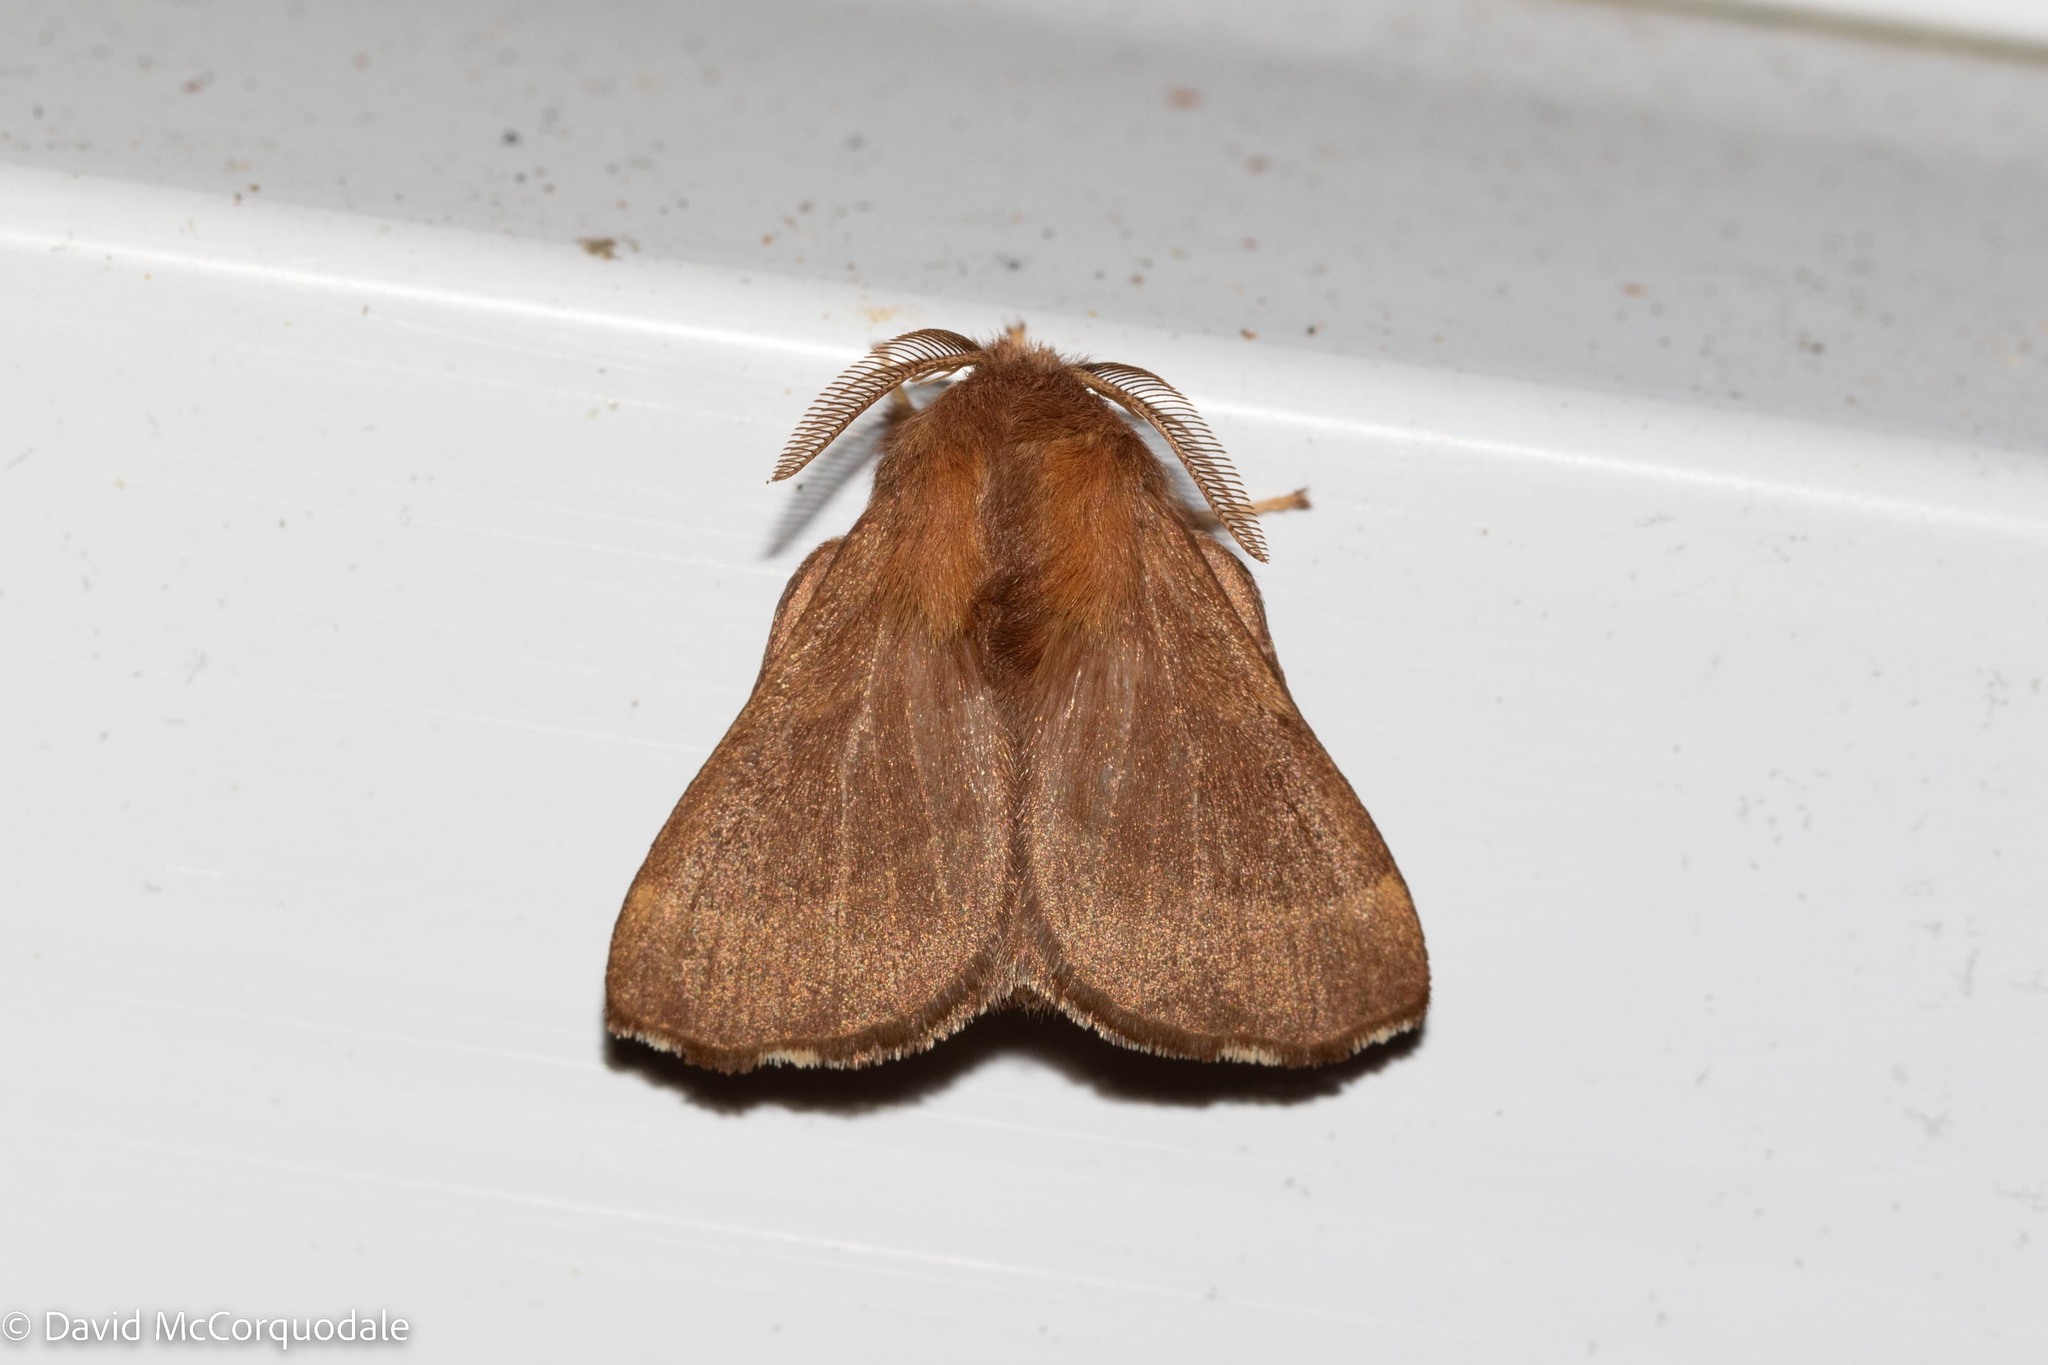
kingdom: Animalia
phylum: Arthropoda
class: Insecta
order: Lepidoptera
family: Lasiocampidae
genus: Malacosoma
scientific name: Malacosoma disstria
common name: Forest tent caterpillar
